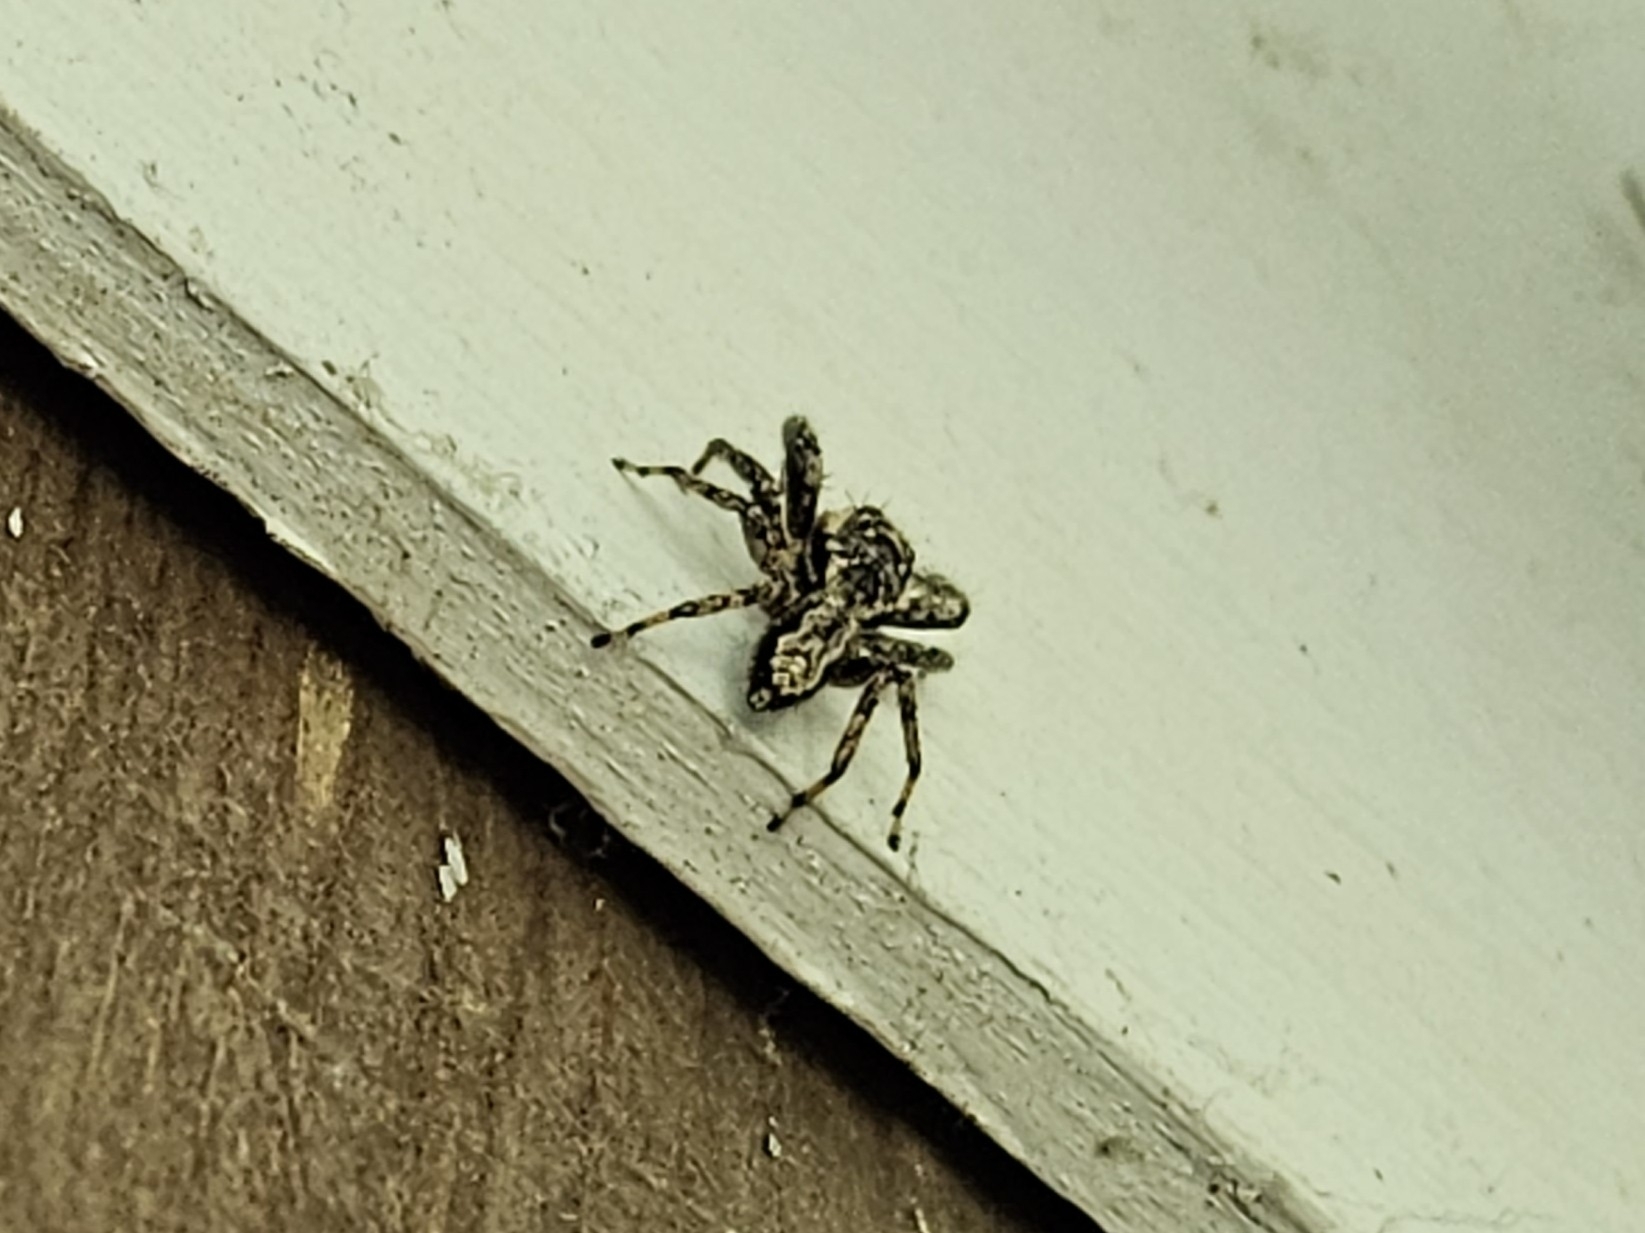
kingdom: Animalia
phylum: Arthropoda
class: Arachnida
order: Araneae
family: Salticidae
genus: Platycryptus
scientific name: Platycryptus undatus
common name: Tan jumping spider
